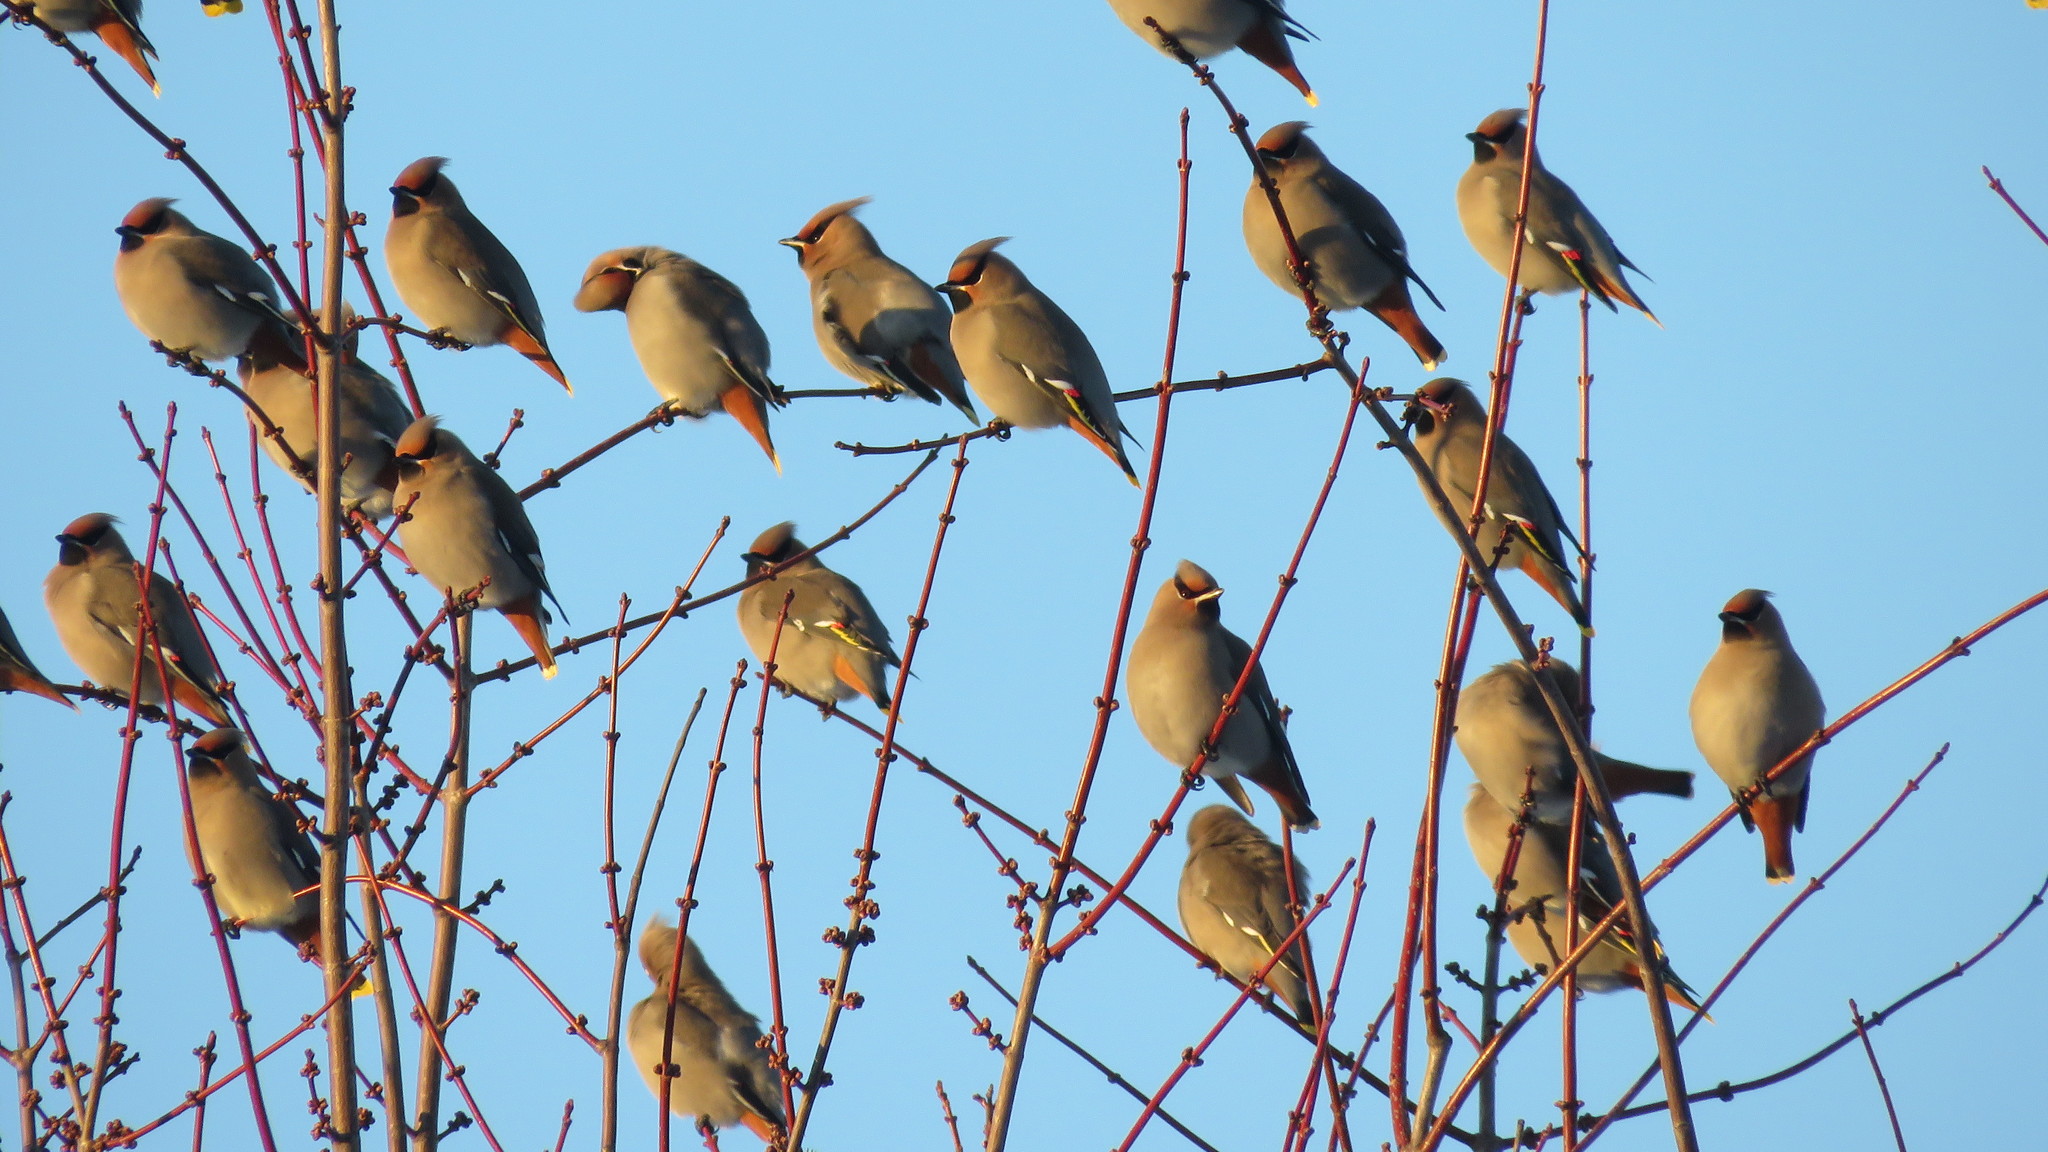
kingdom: Animalia
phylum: Chordata
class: Aves
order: Passeriformes
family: Bombycillidae
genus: Bombycilla
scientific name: Bombycilla garrulus
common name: Bohemian waxwing
